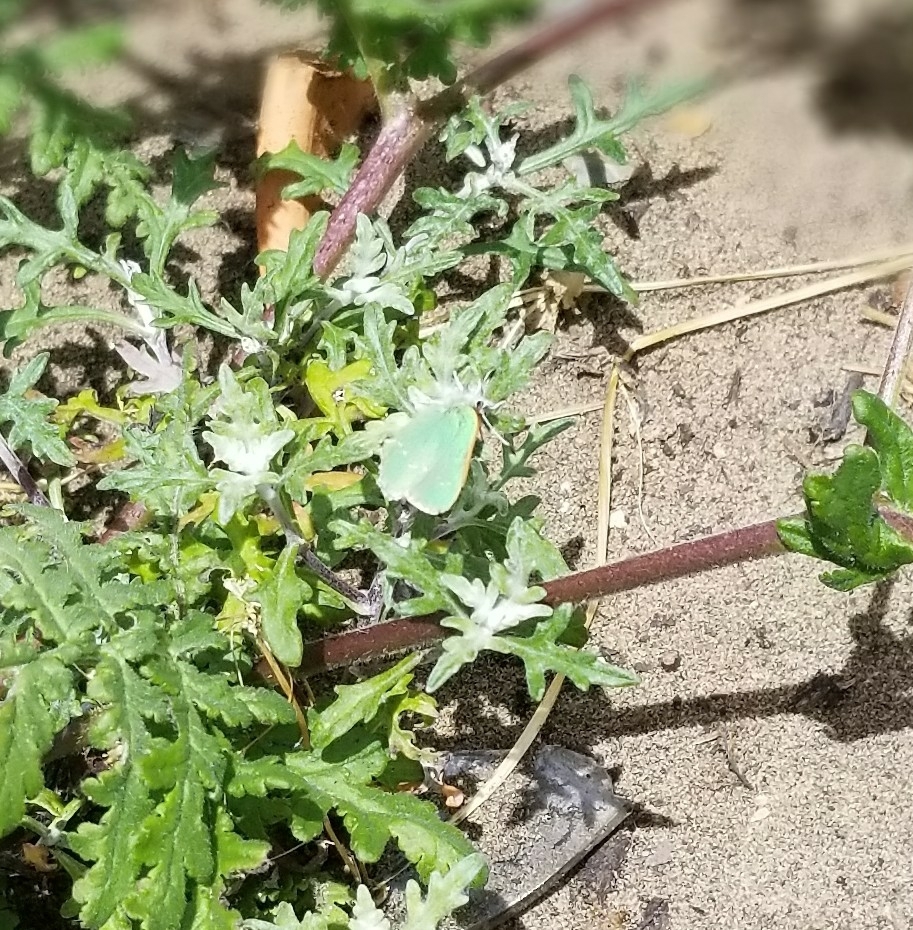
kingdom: Animalia
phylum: Arthropoda
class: Insecta
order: Lepidoptera
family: Lycaenidae
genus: Callophrys
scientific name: Callophrys viridis
